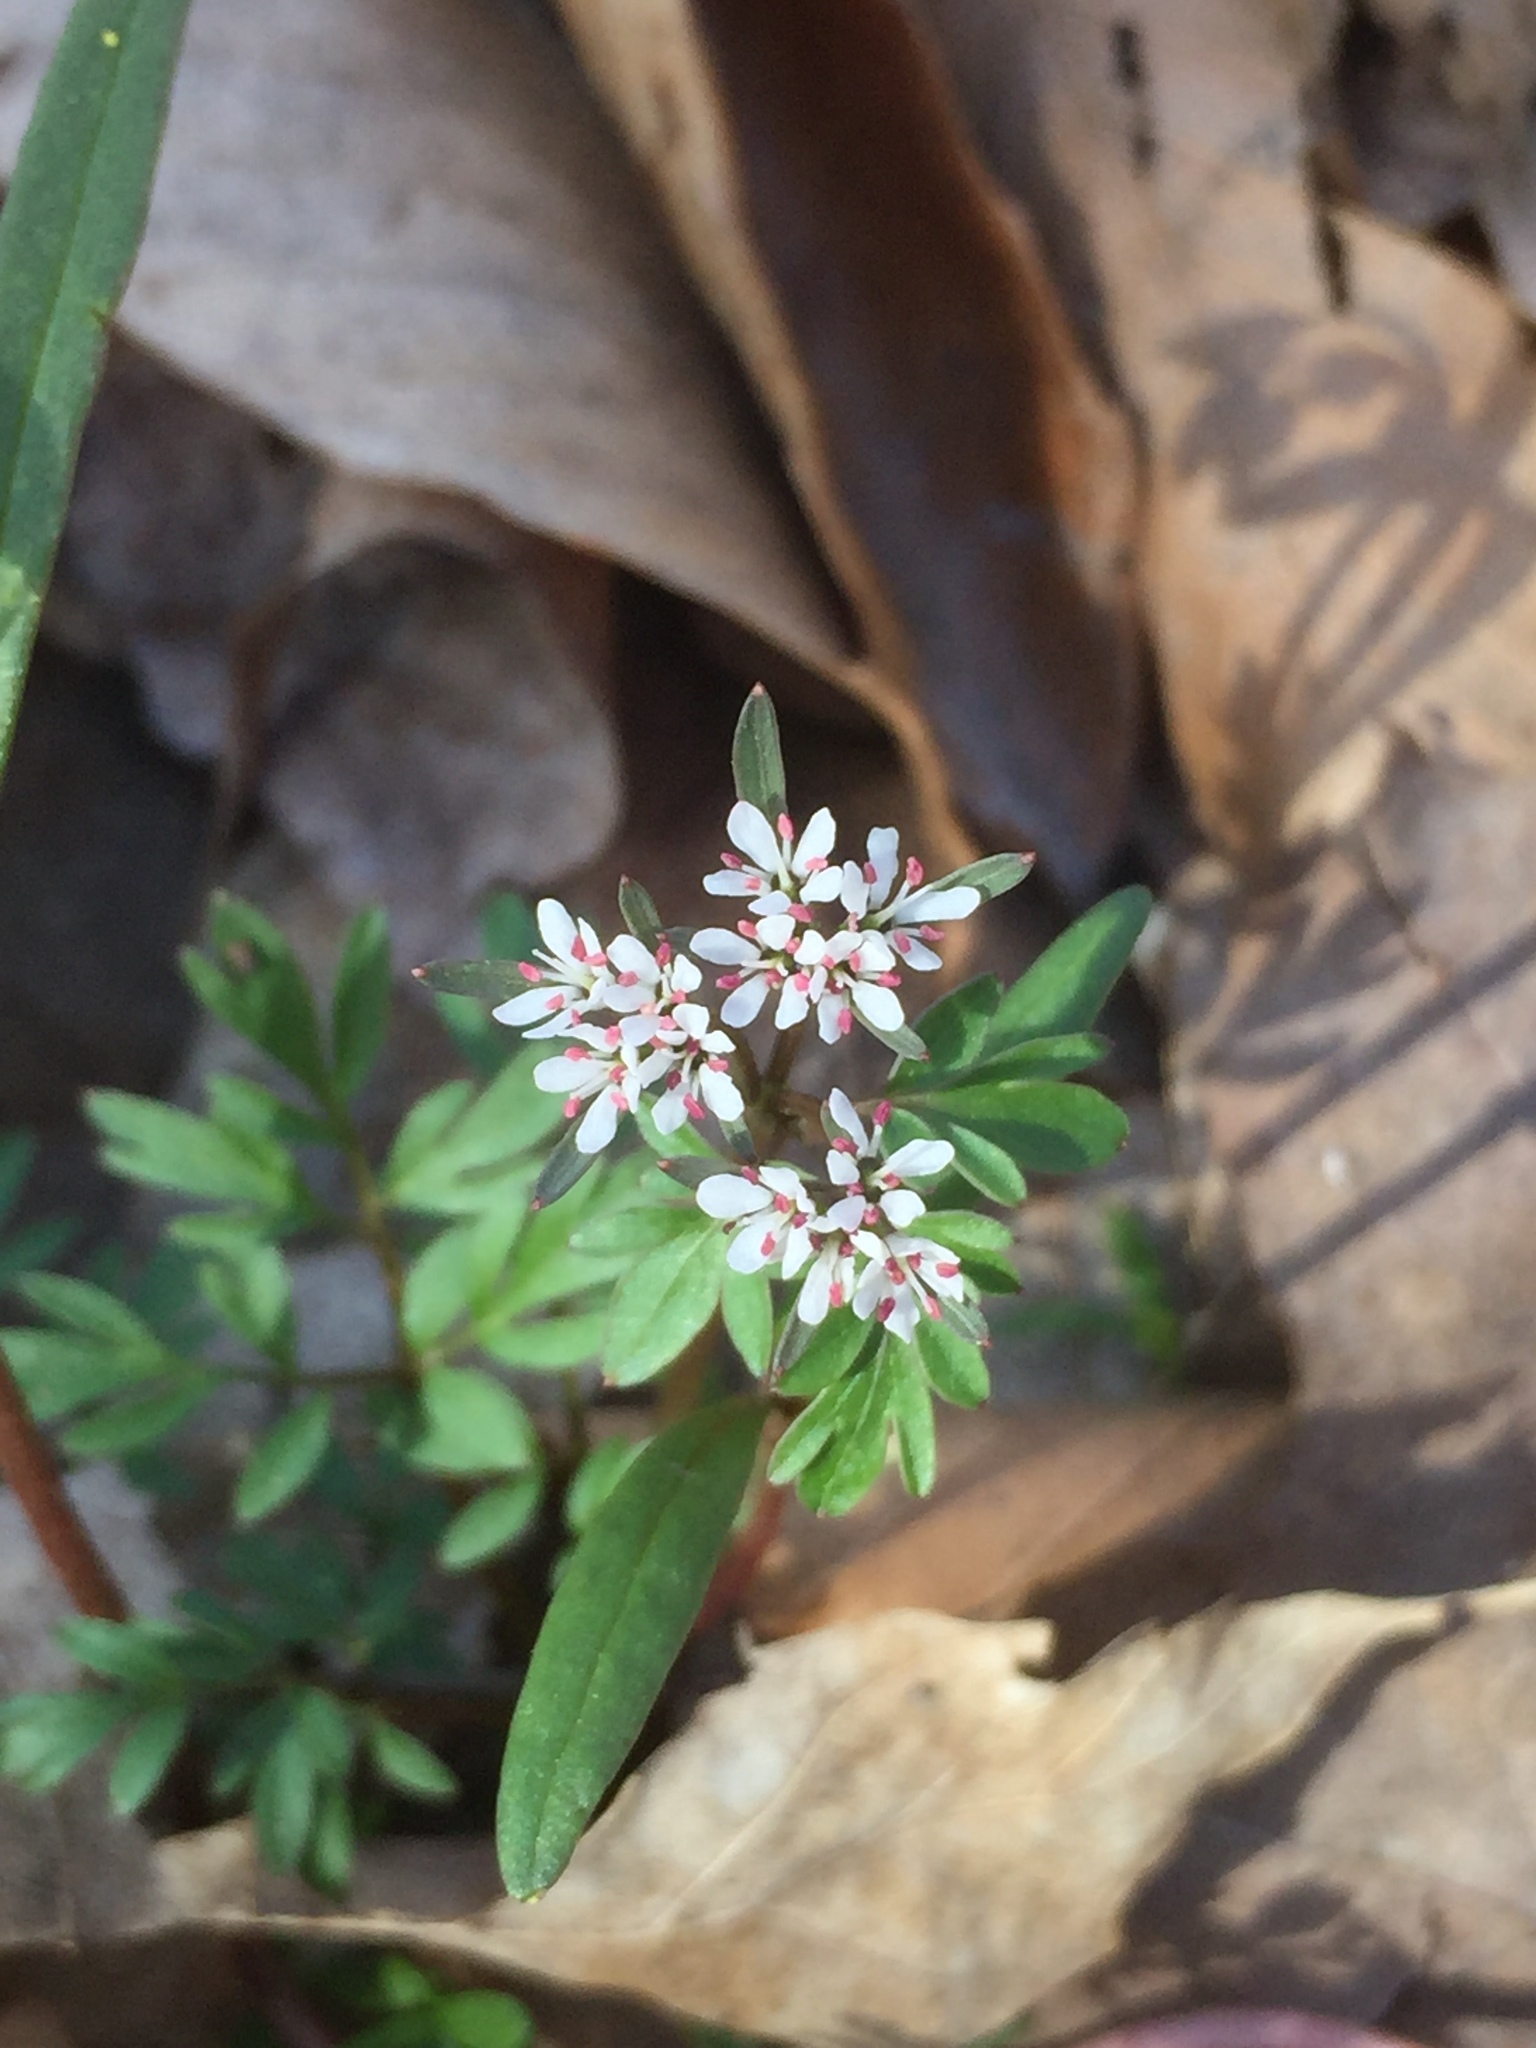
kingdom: Plantae
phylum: Tracheophyta
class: Magnoliopsida
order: Apiales
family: Apiaceae
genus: Erigenia
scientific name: Erigenia bulbosa
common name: Pepper-and-salt
